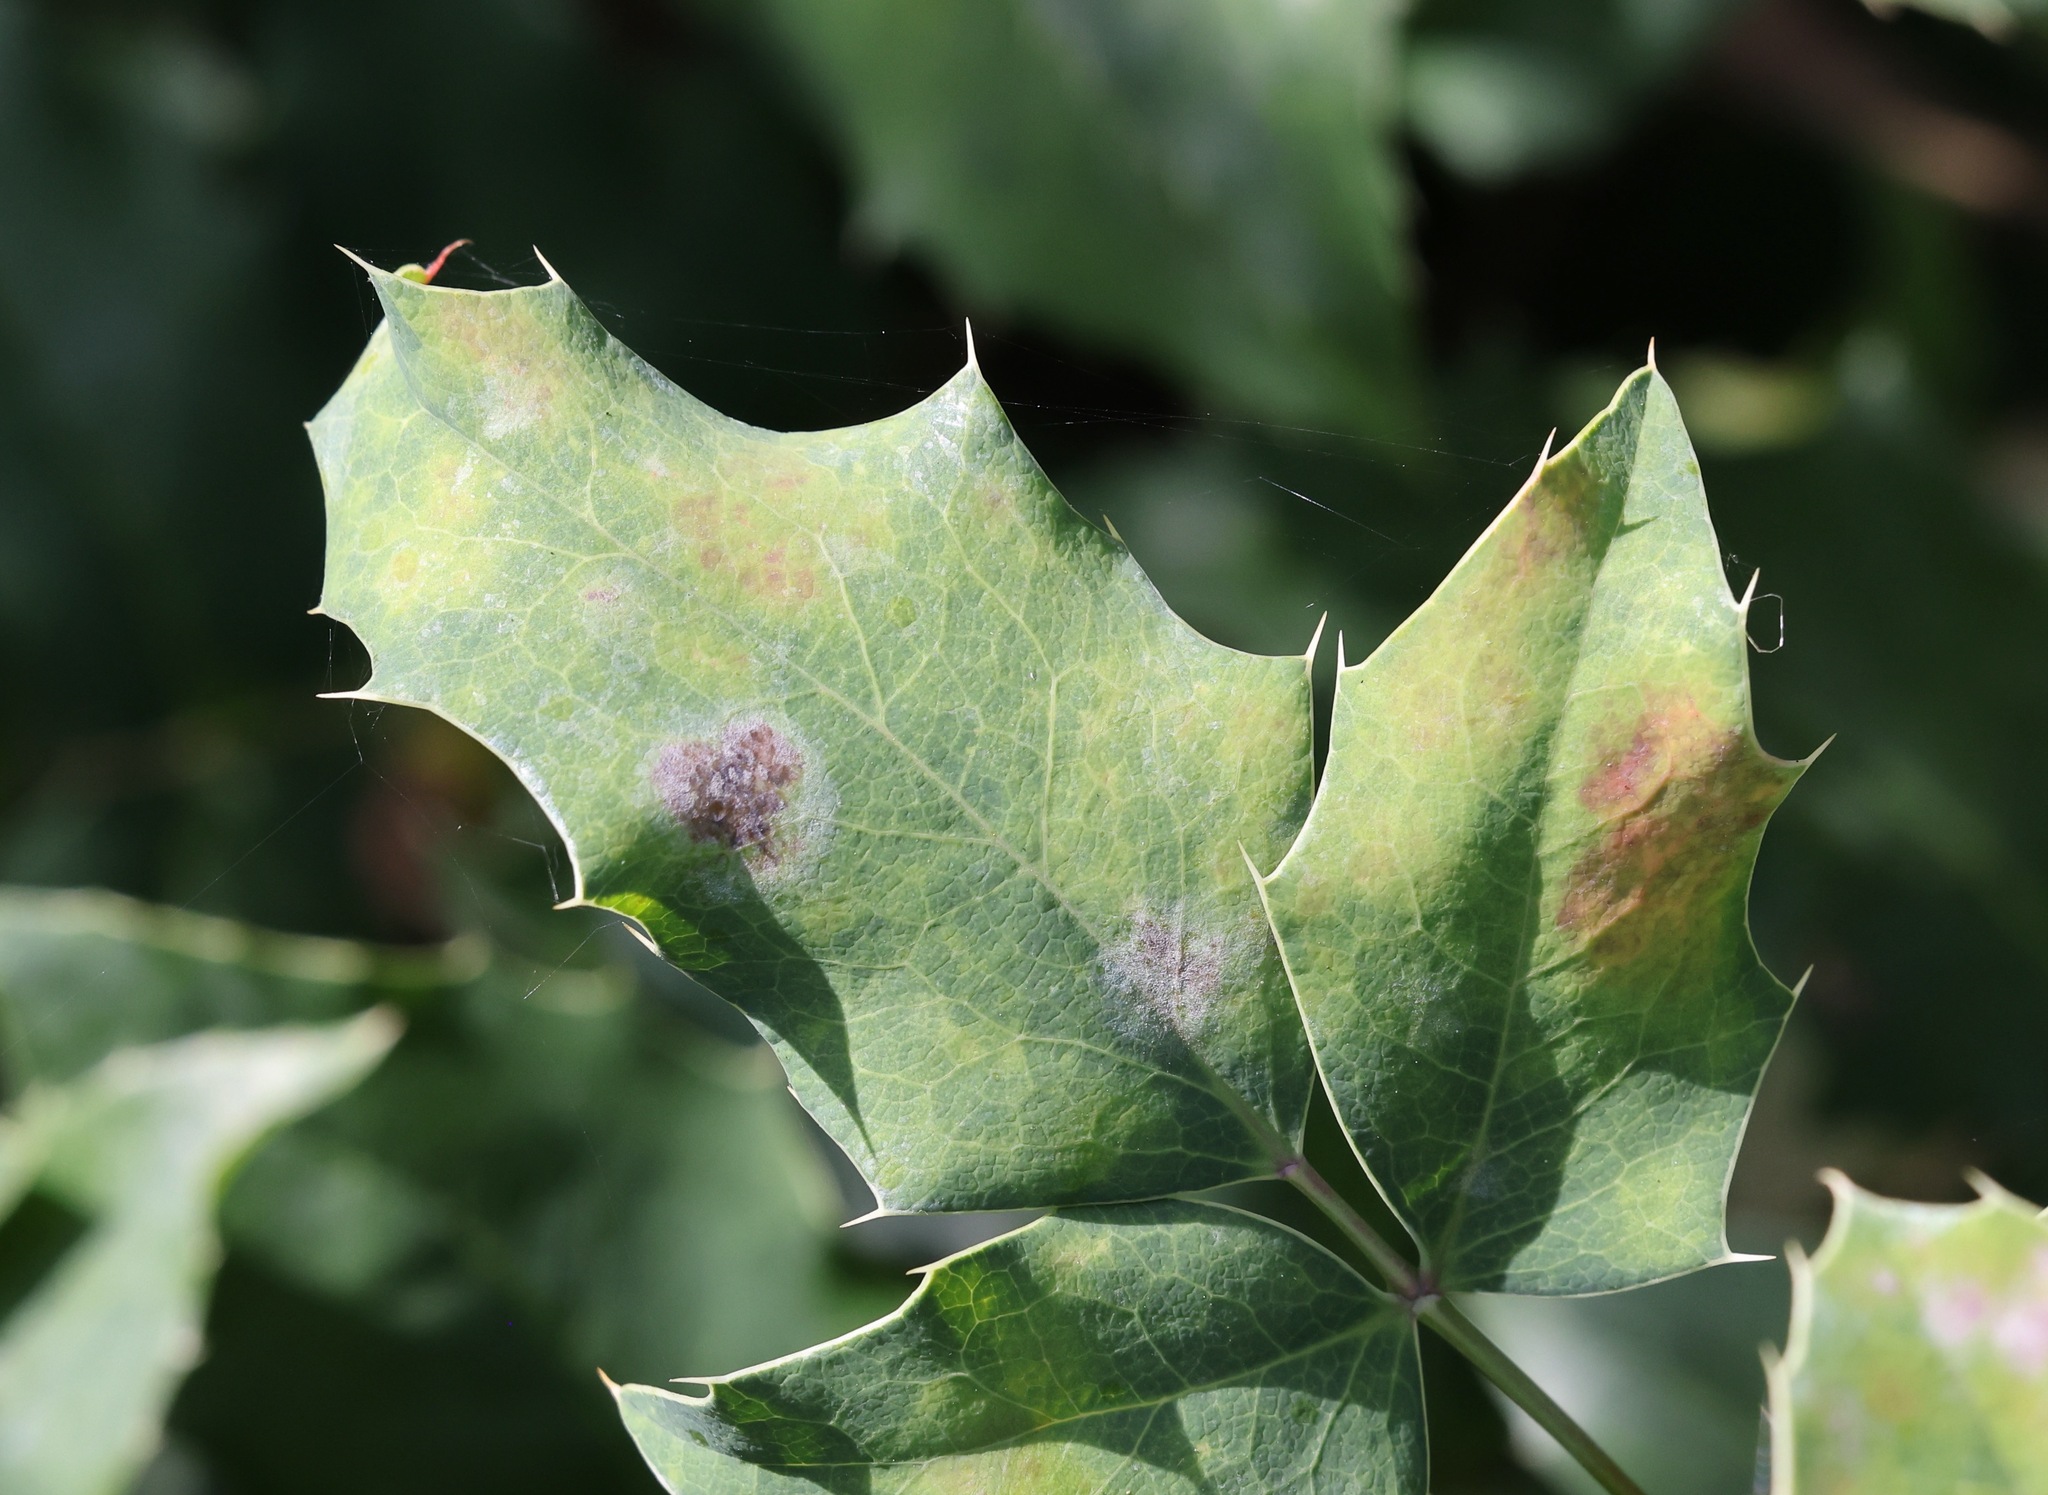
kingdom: Fungi
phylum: Ascomycota
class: Leotiomycetes
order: Helotiales
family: Erysiphaceae
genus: Erysiphe
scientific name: Erysiphe berberidis
